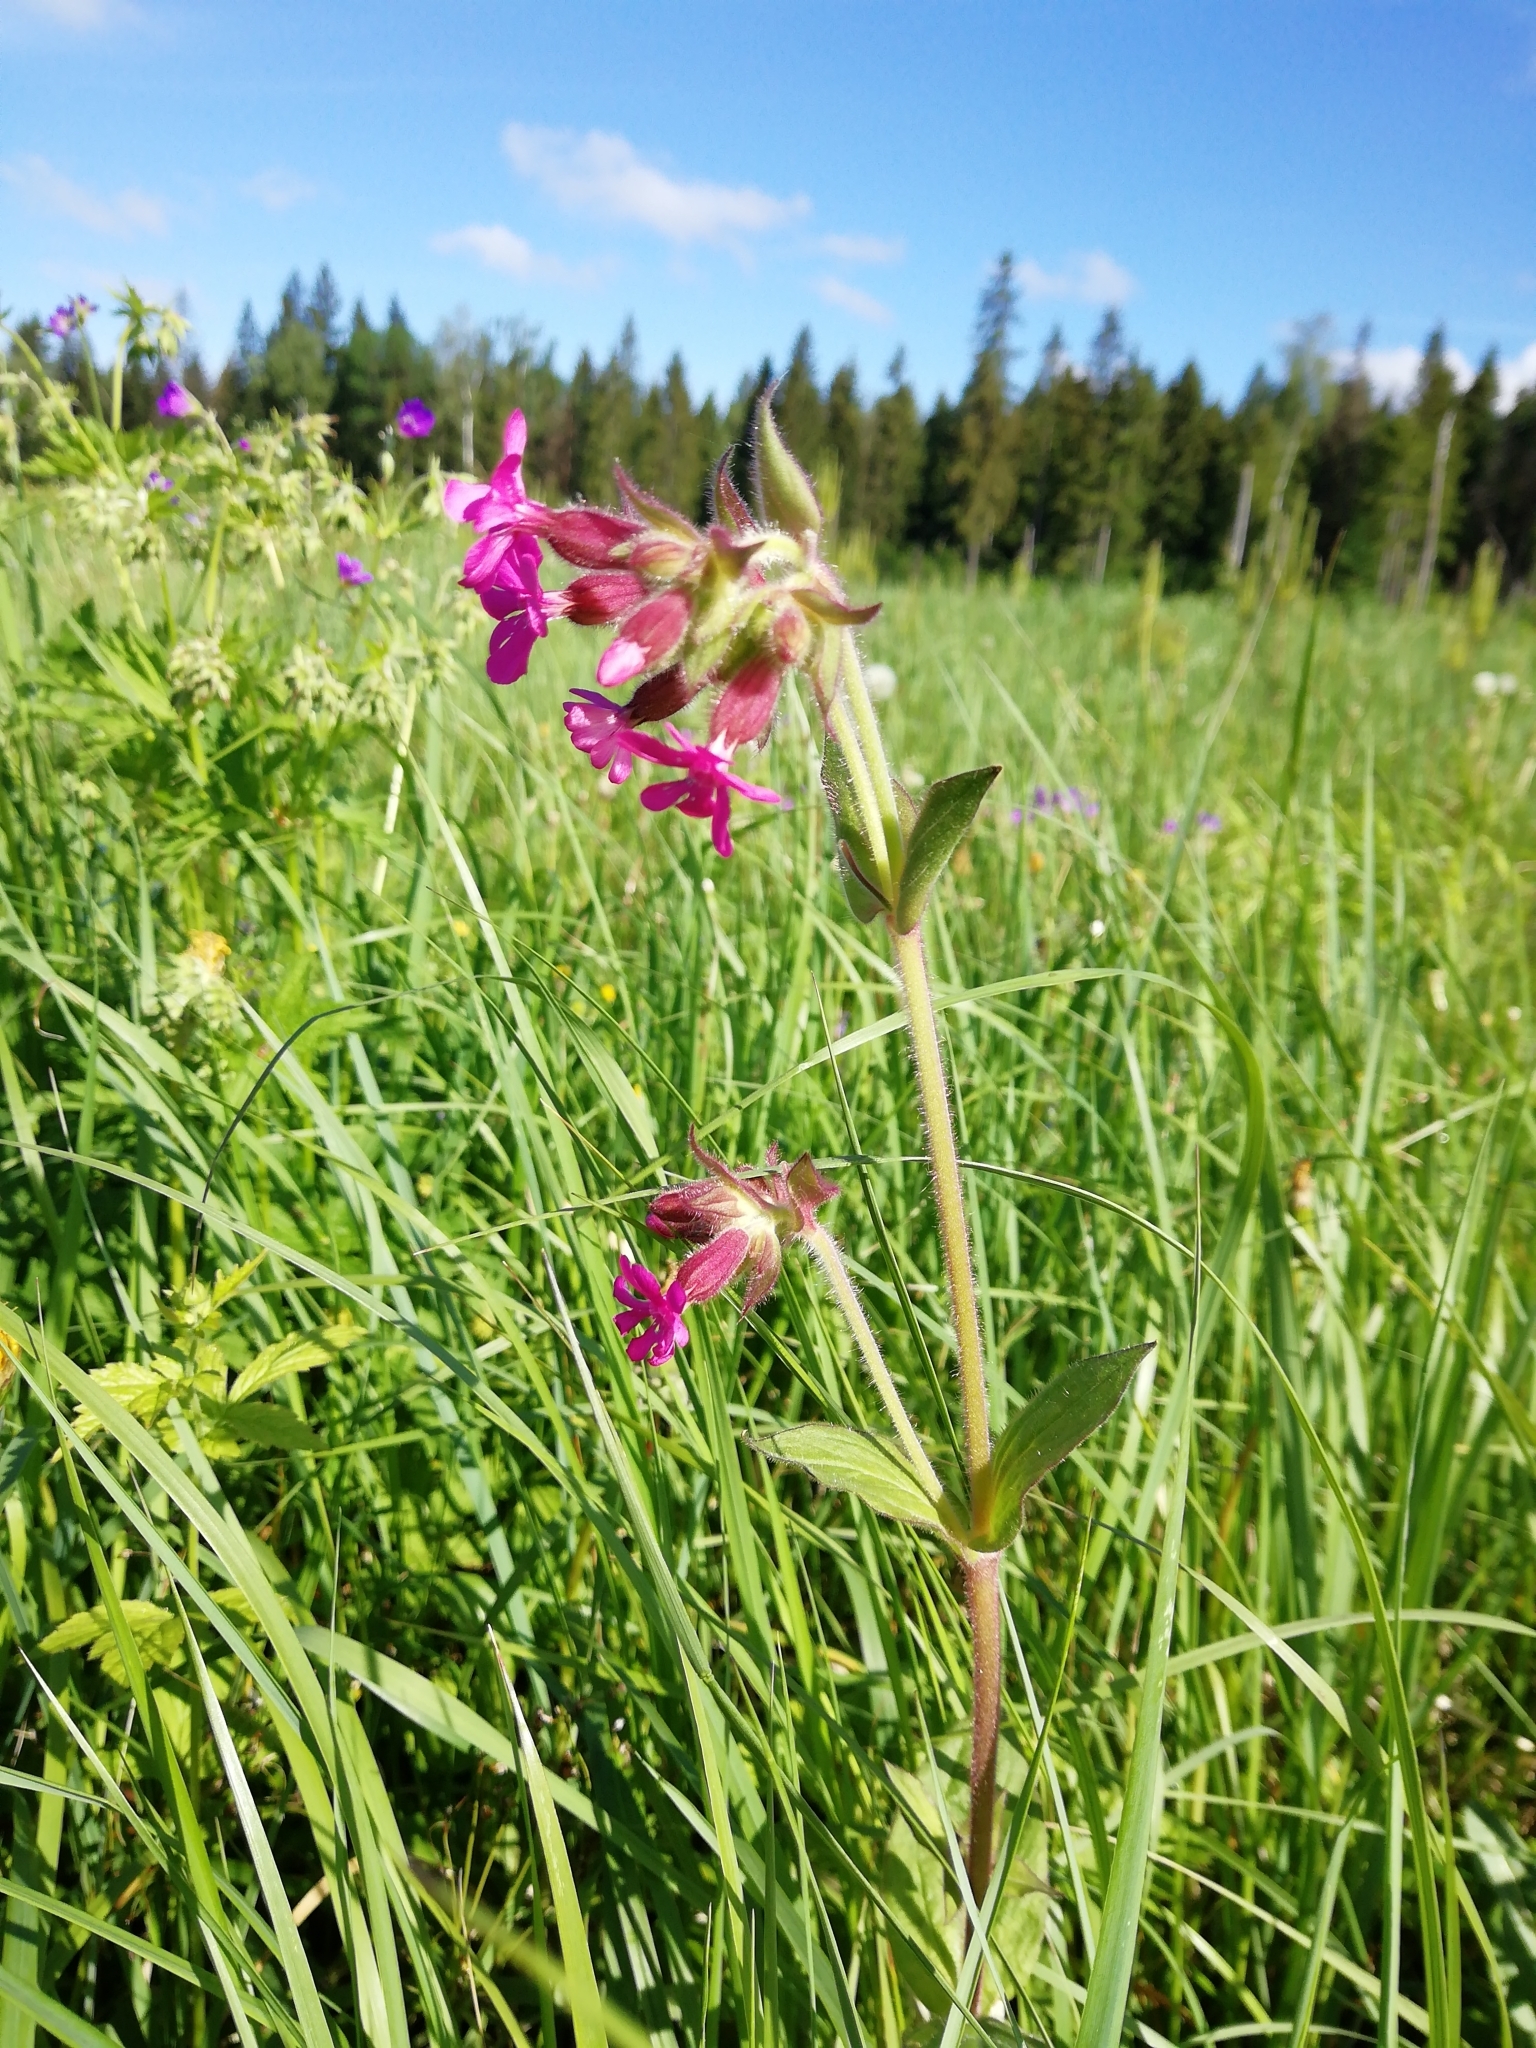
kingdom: Plantae
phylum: Tracheophyta
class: Magnoliopsida
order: Caryophyllales
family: Caryophyllaceae
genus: Silene
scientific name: Silene dioica
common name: Red campion
